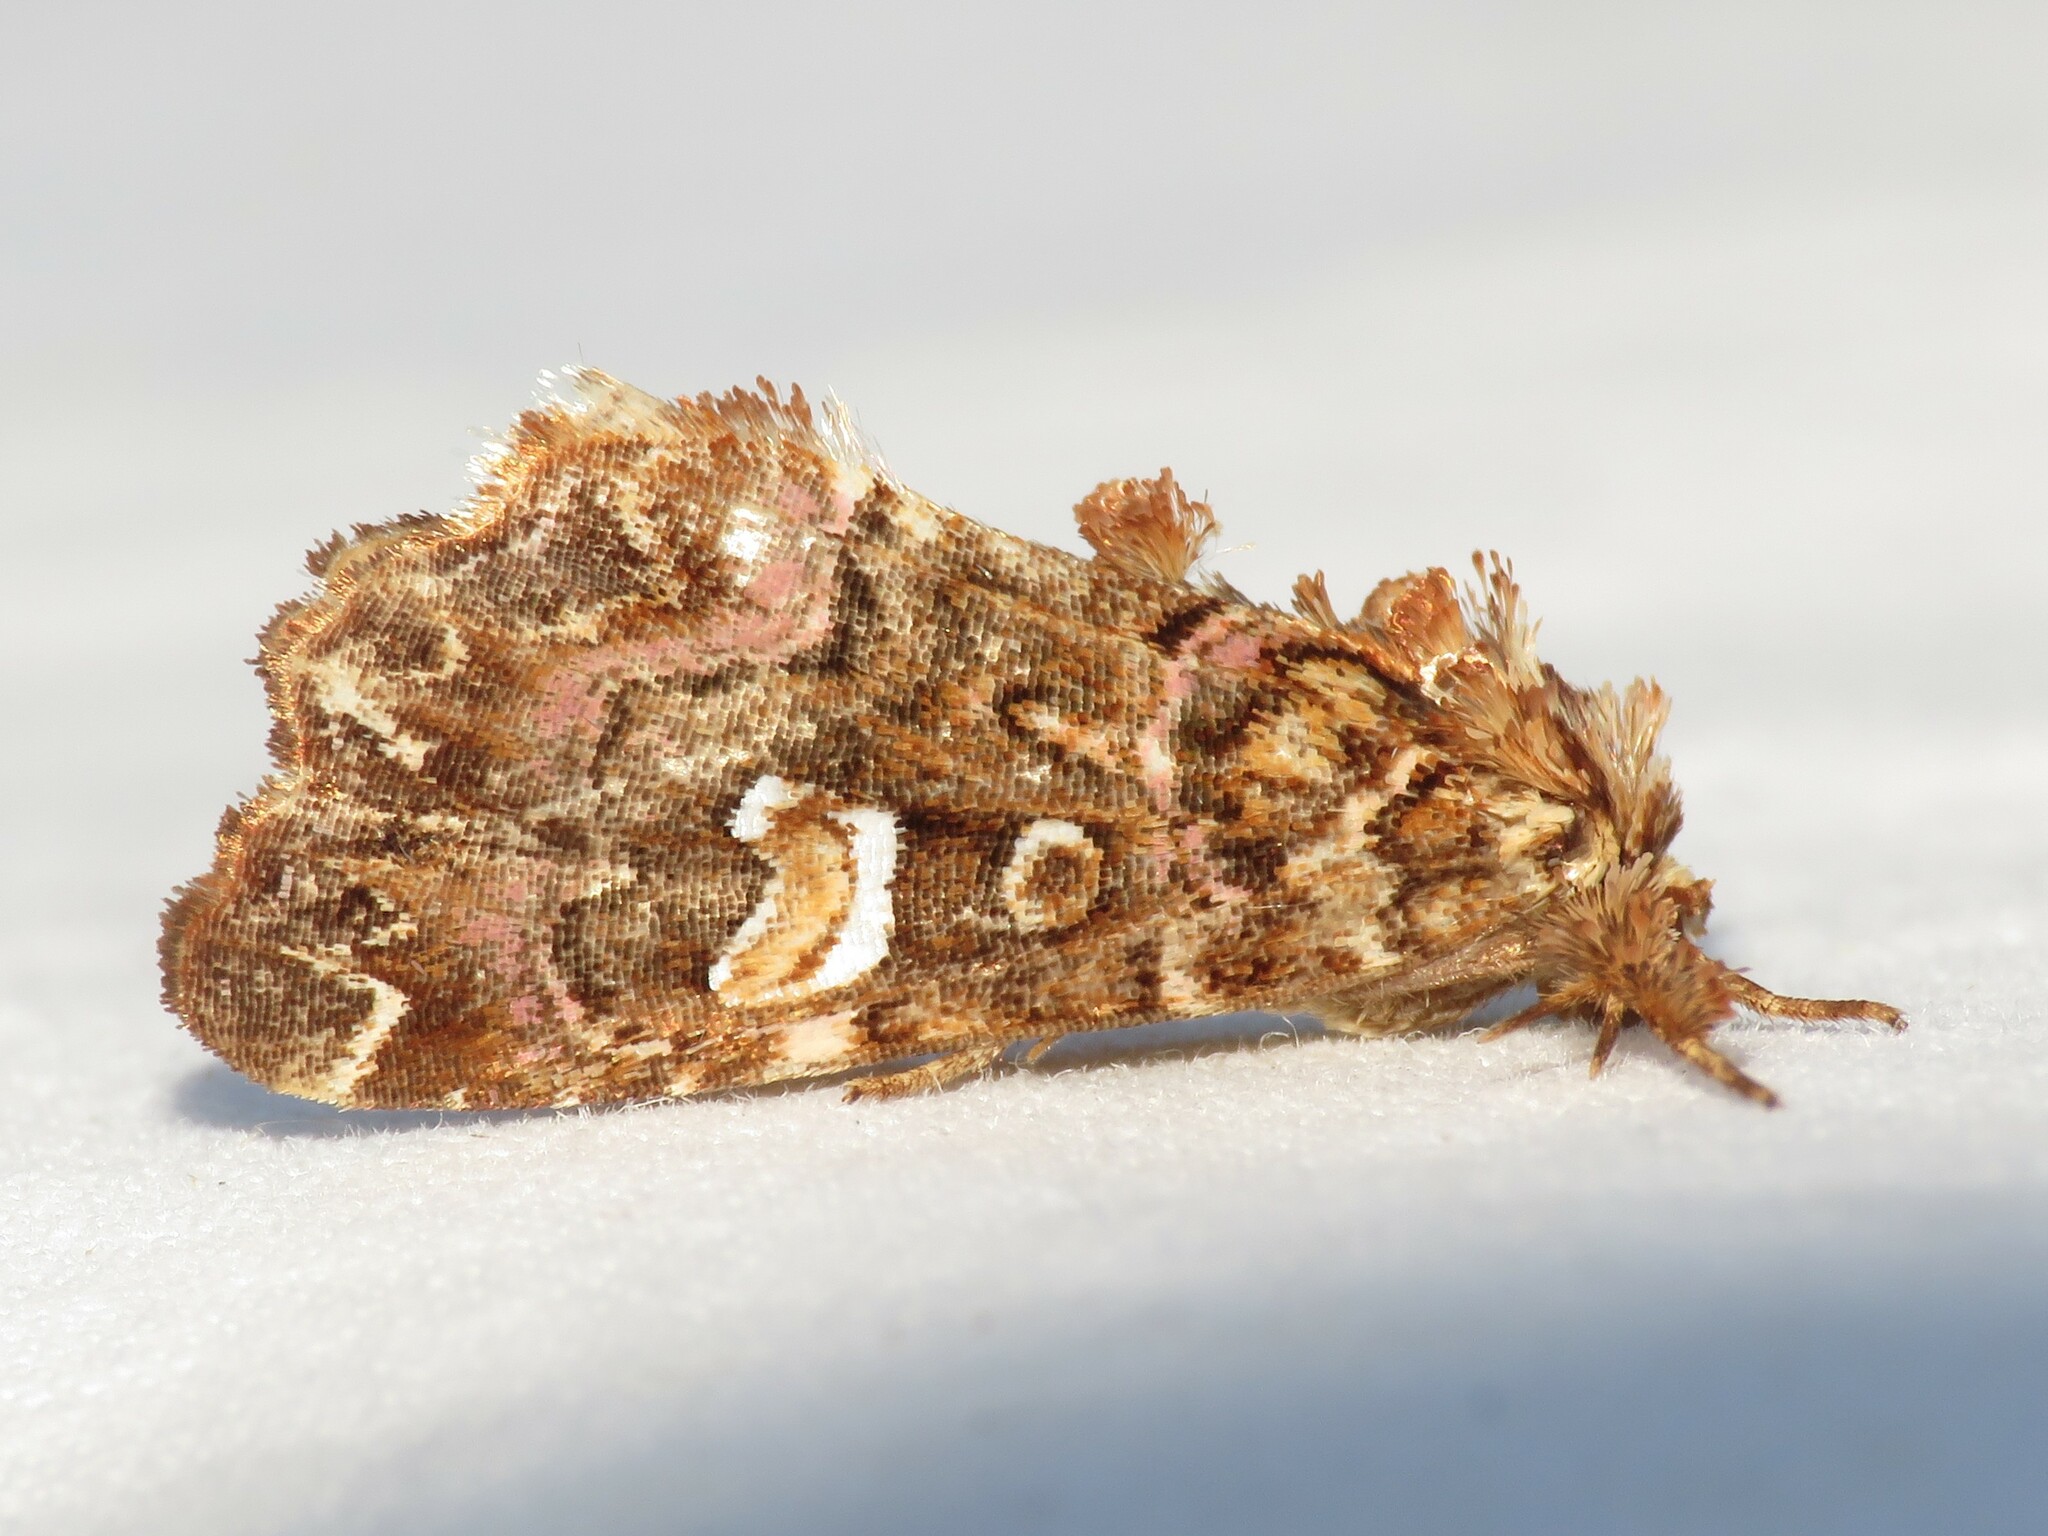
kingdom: Animalia
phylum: Arthropoda
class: Insecta
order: Lepidoptera
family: Noctuidae
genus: Callopistria
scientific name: Callopistria mollissima
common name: Pink-shaded fern moth
